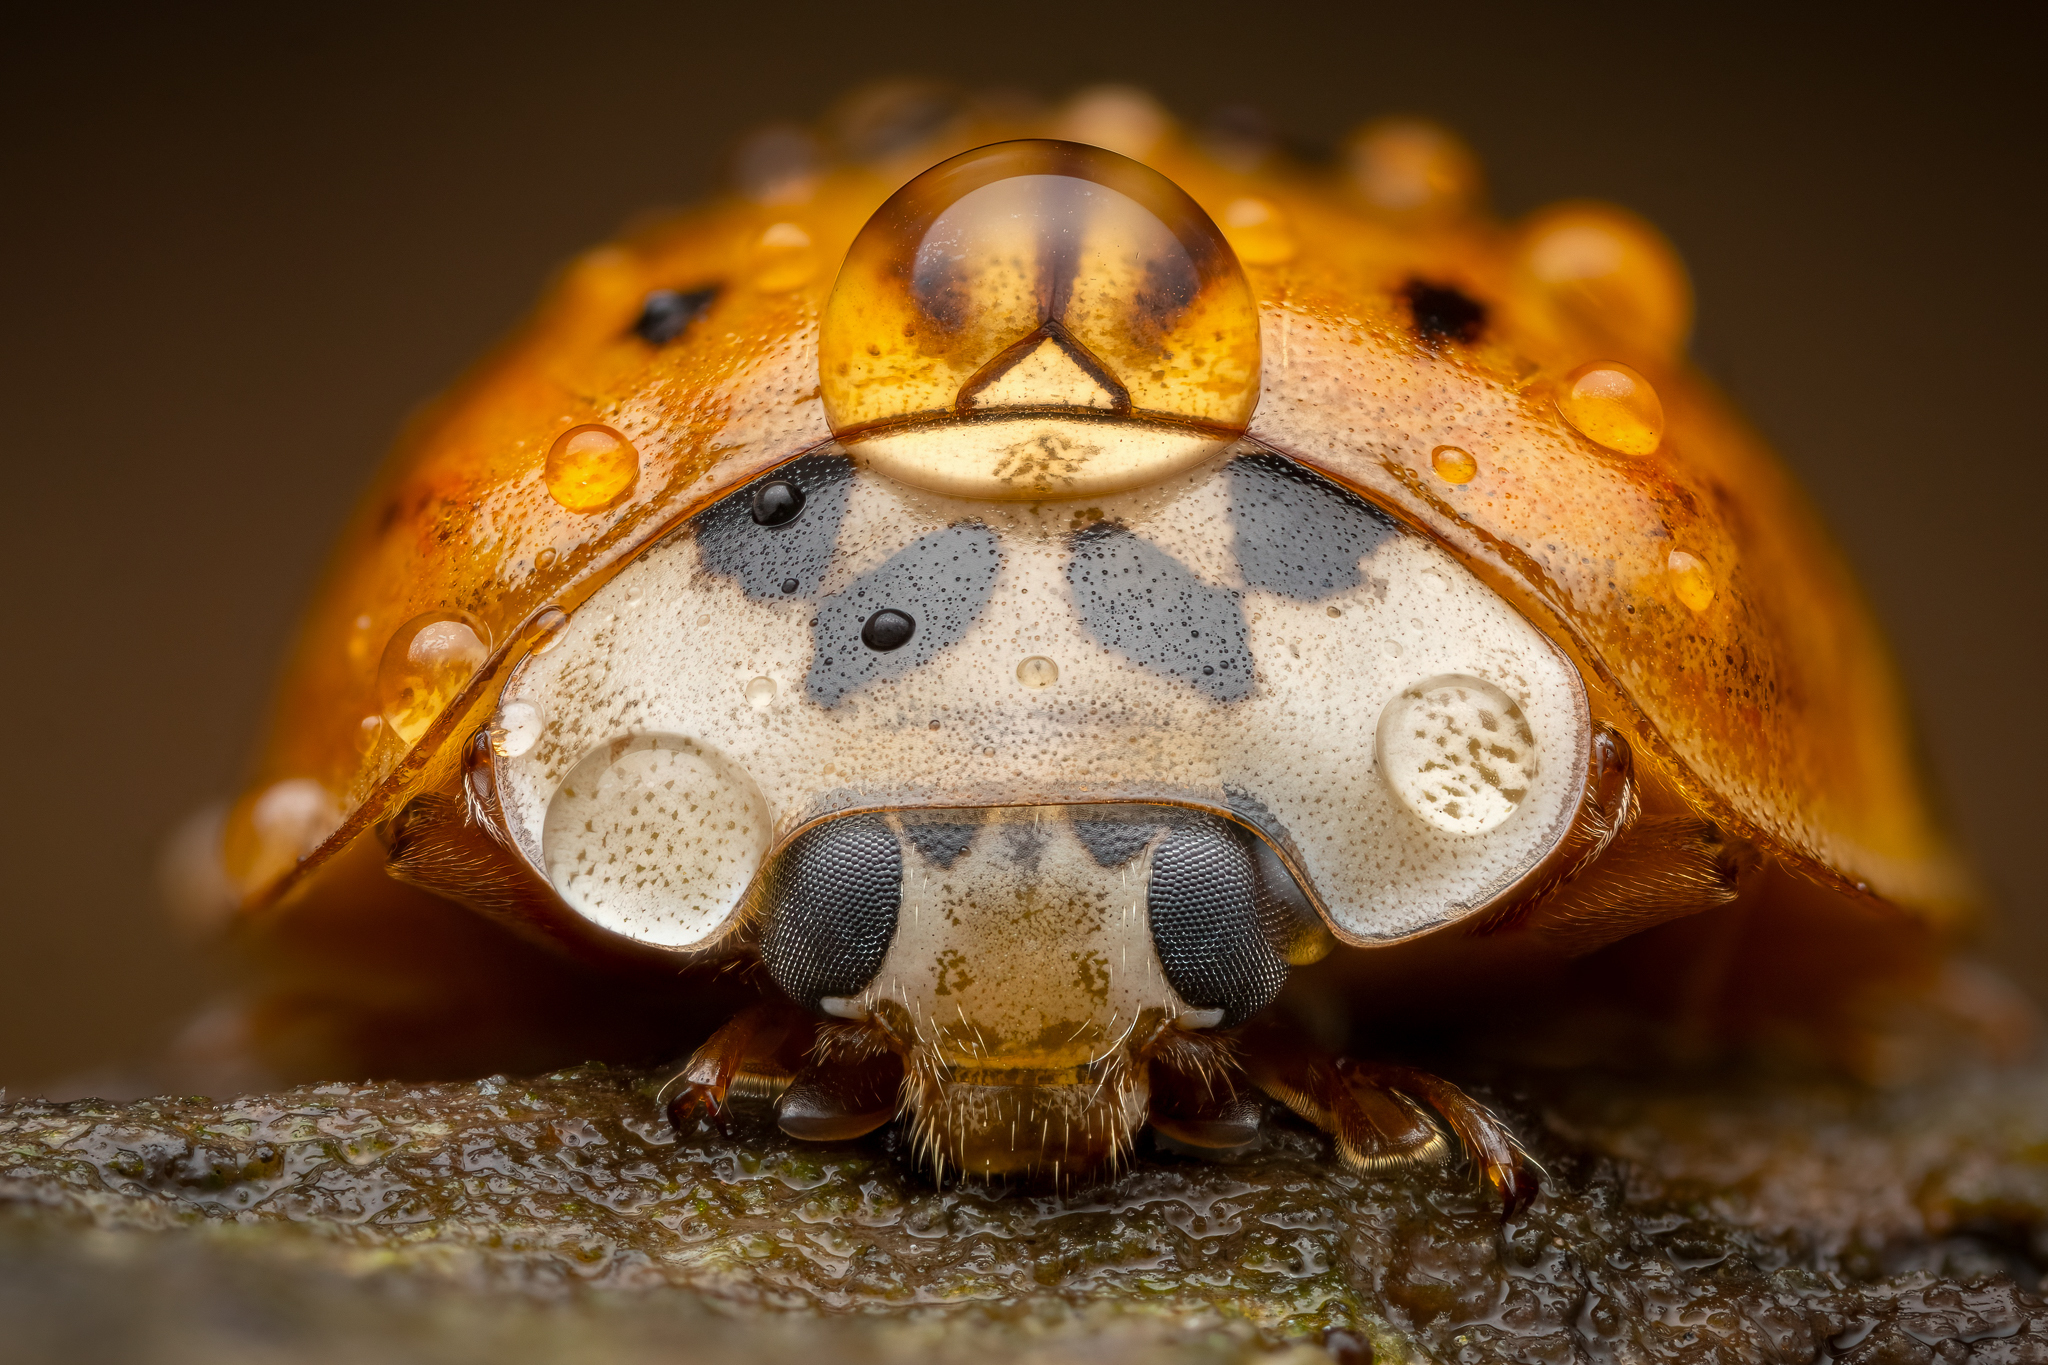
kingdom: Animalia
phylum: Arthropoda
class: Insecta
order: Coleoptera
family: Coccinellidae
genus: Harmonia
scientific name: Harmonia axyridis
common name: Harlequin ladybird
